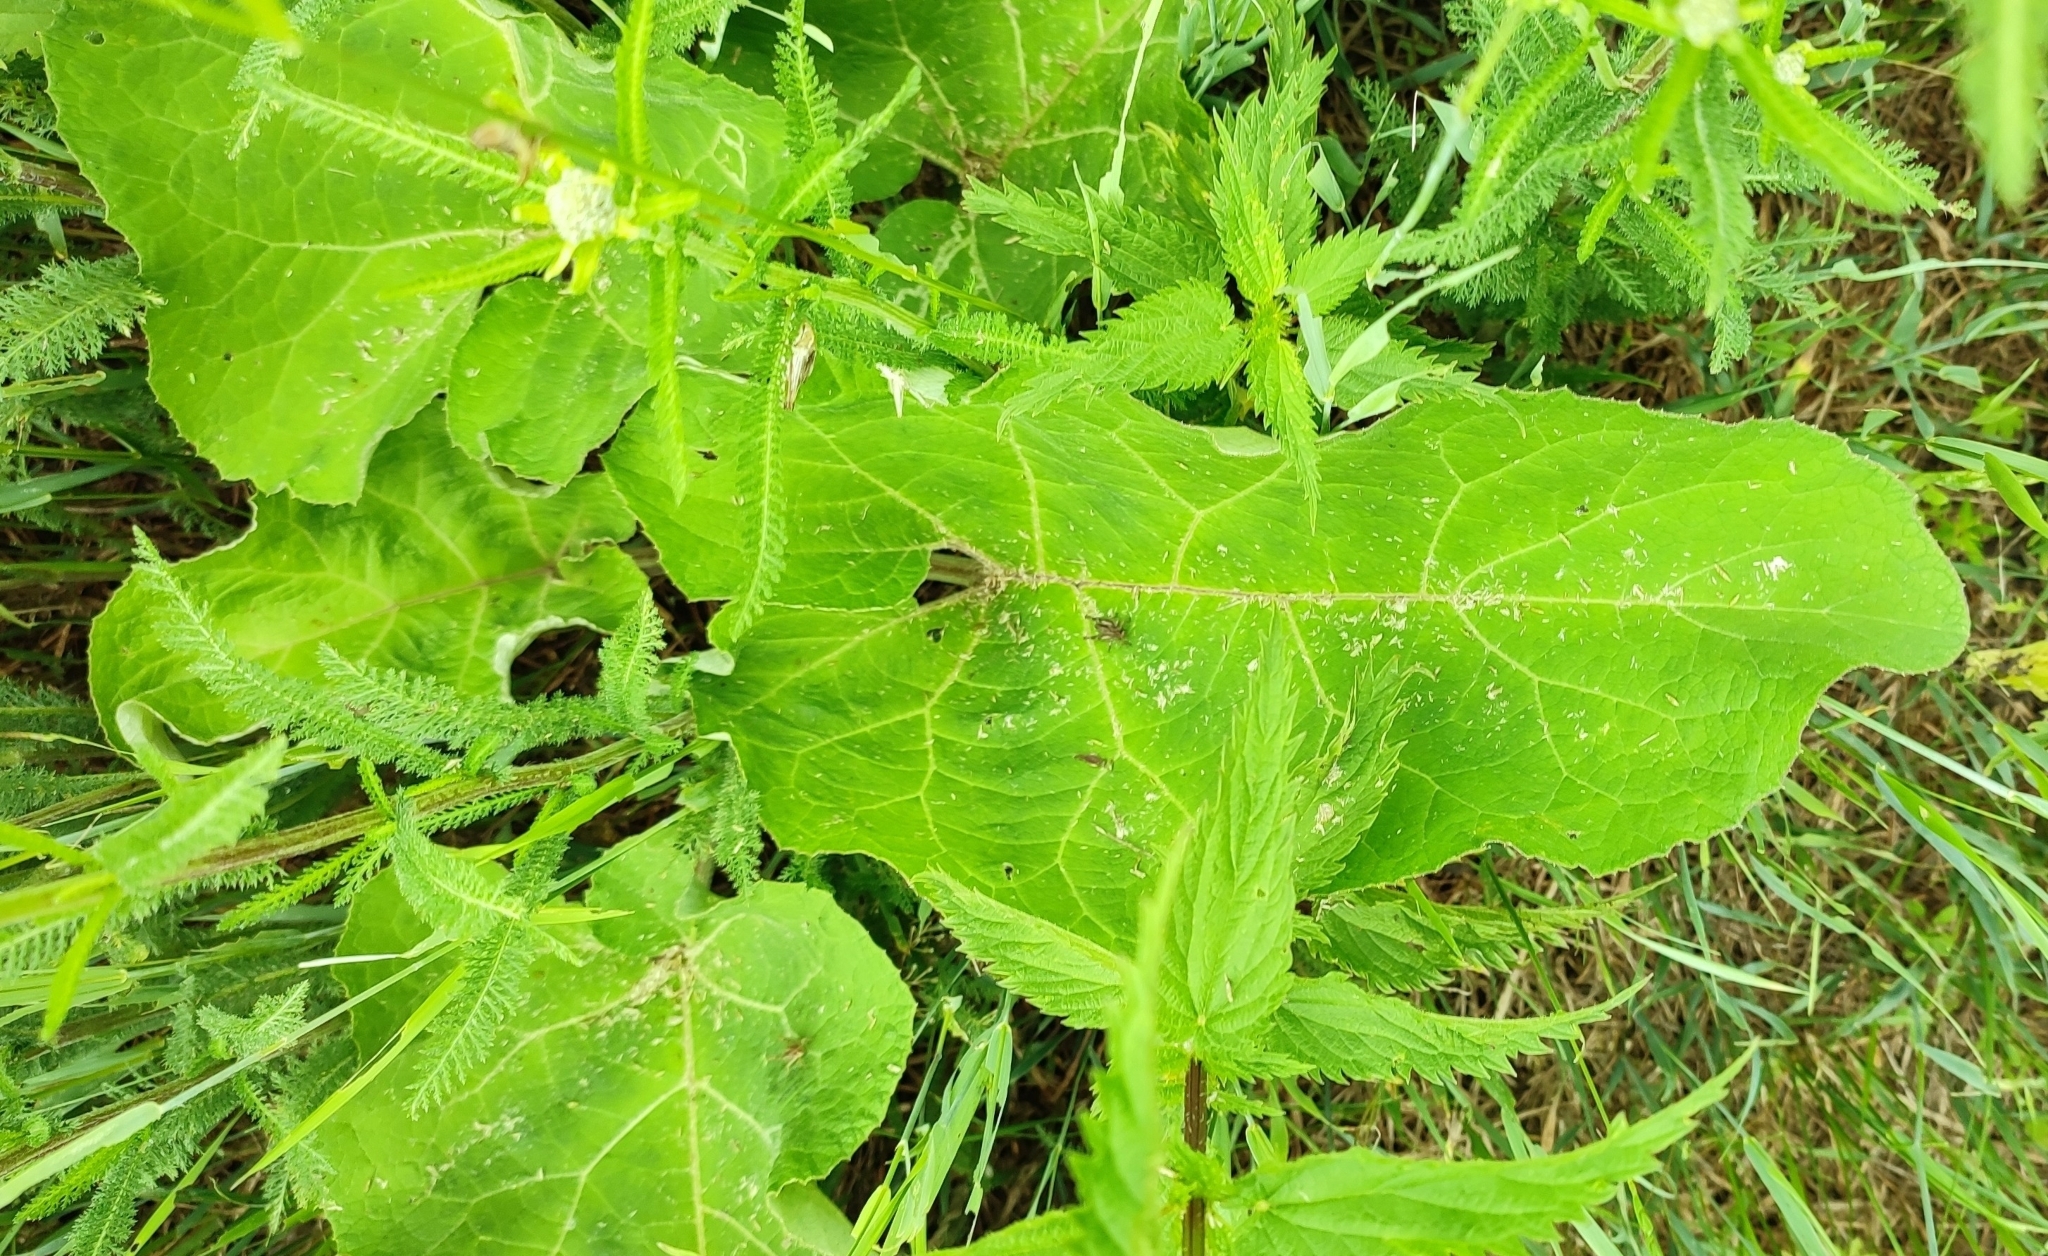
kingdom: Plantae
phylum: Tracheophyta
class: Magnoliopsida
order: Asterales
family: Asteraceae
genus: Arctium
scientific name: Arctium tomentosum
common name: Woolly burdock
